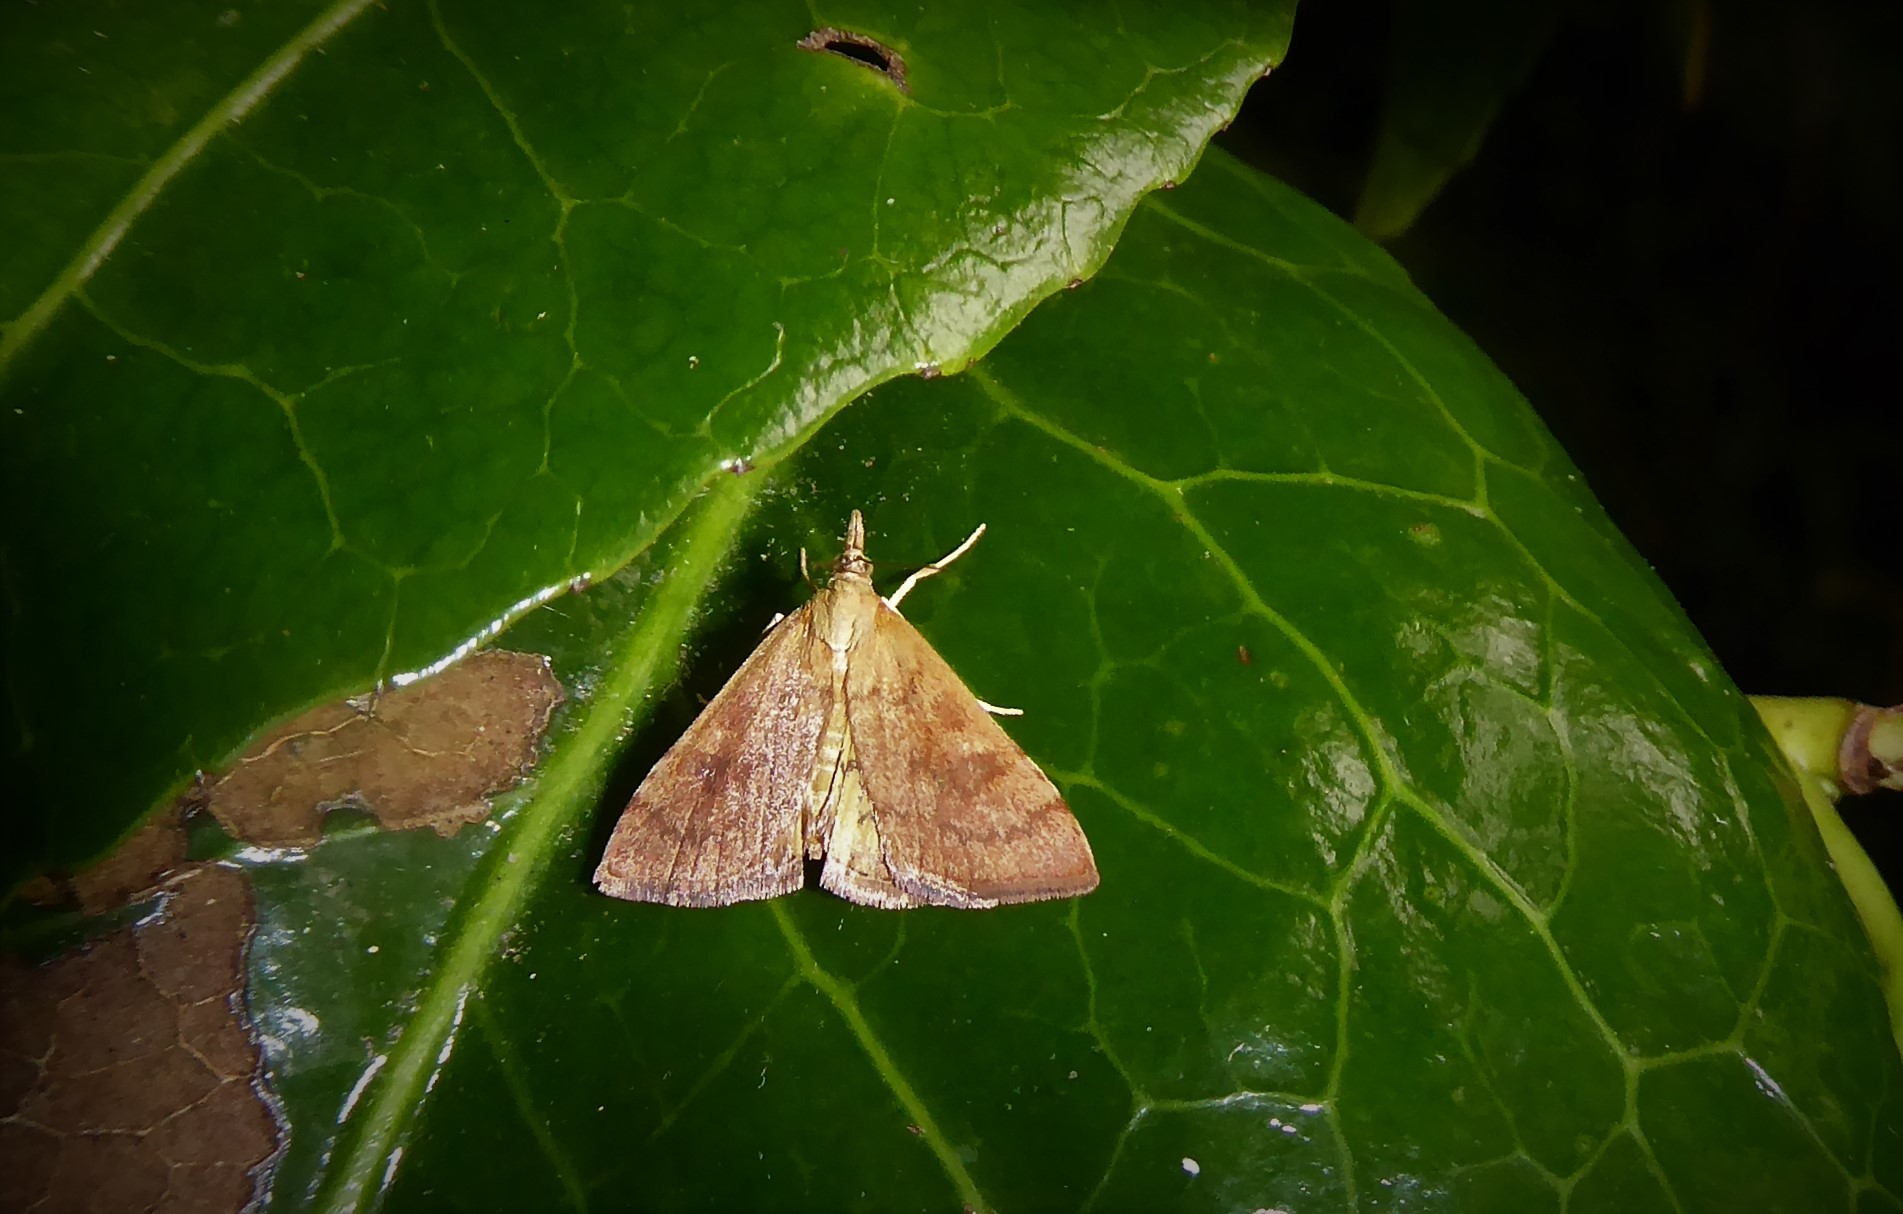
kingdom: Animalia
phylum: Arthropoda
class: Insecta
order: Lepidoptera
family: Crambidae
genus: Udea
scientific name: Udea Mnesictena flavidalis
